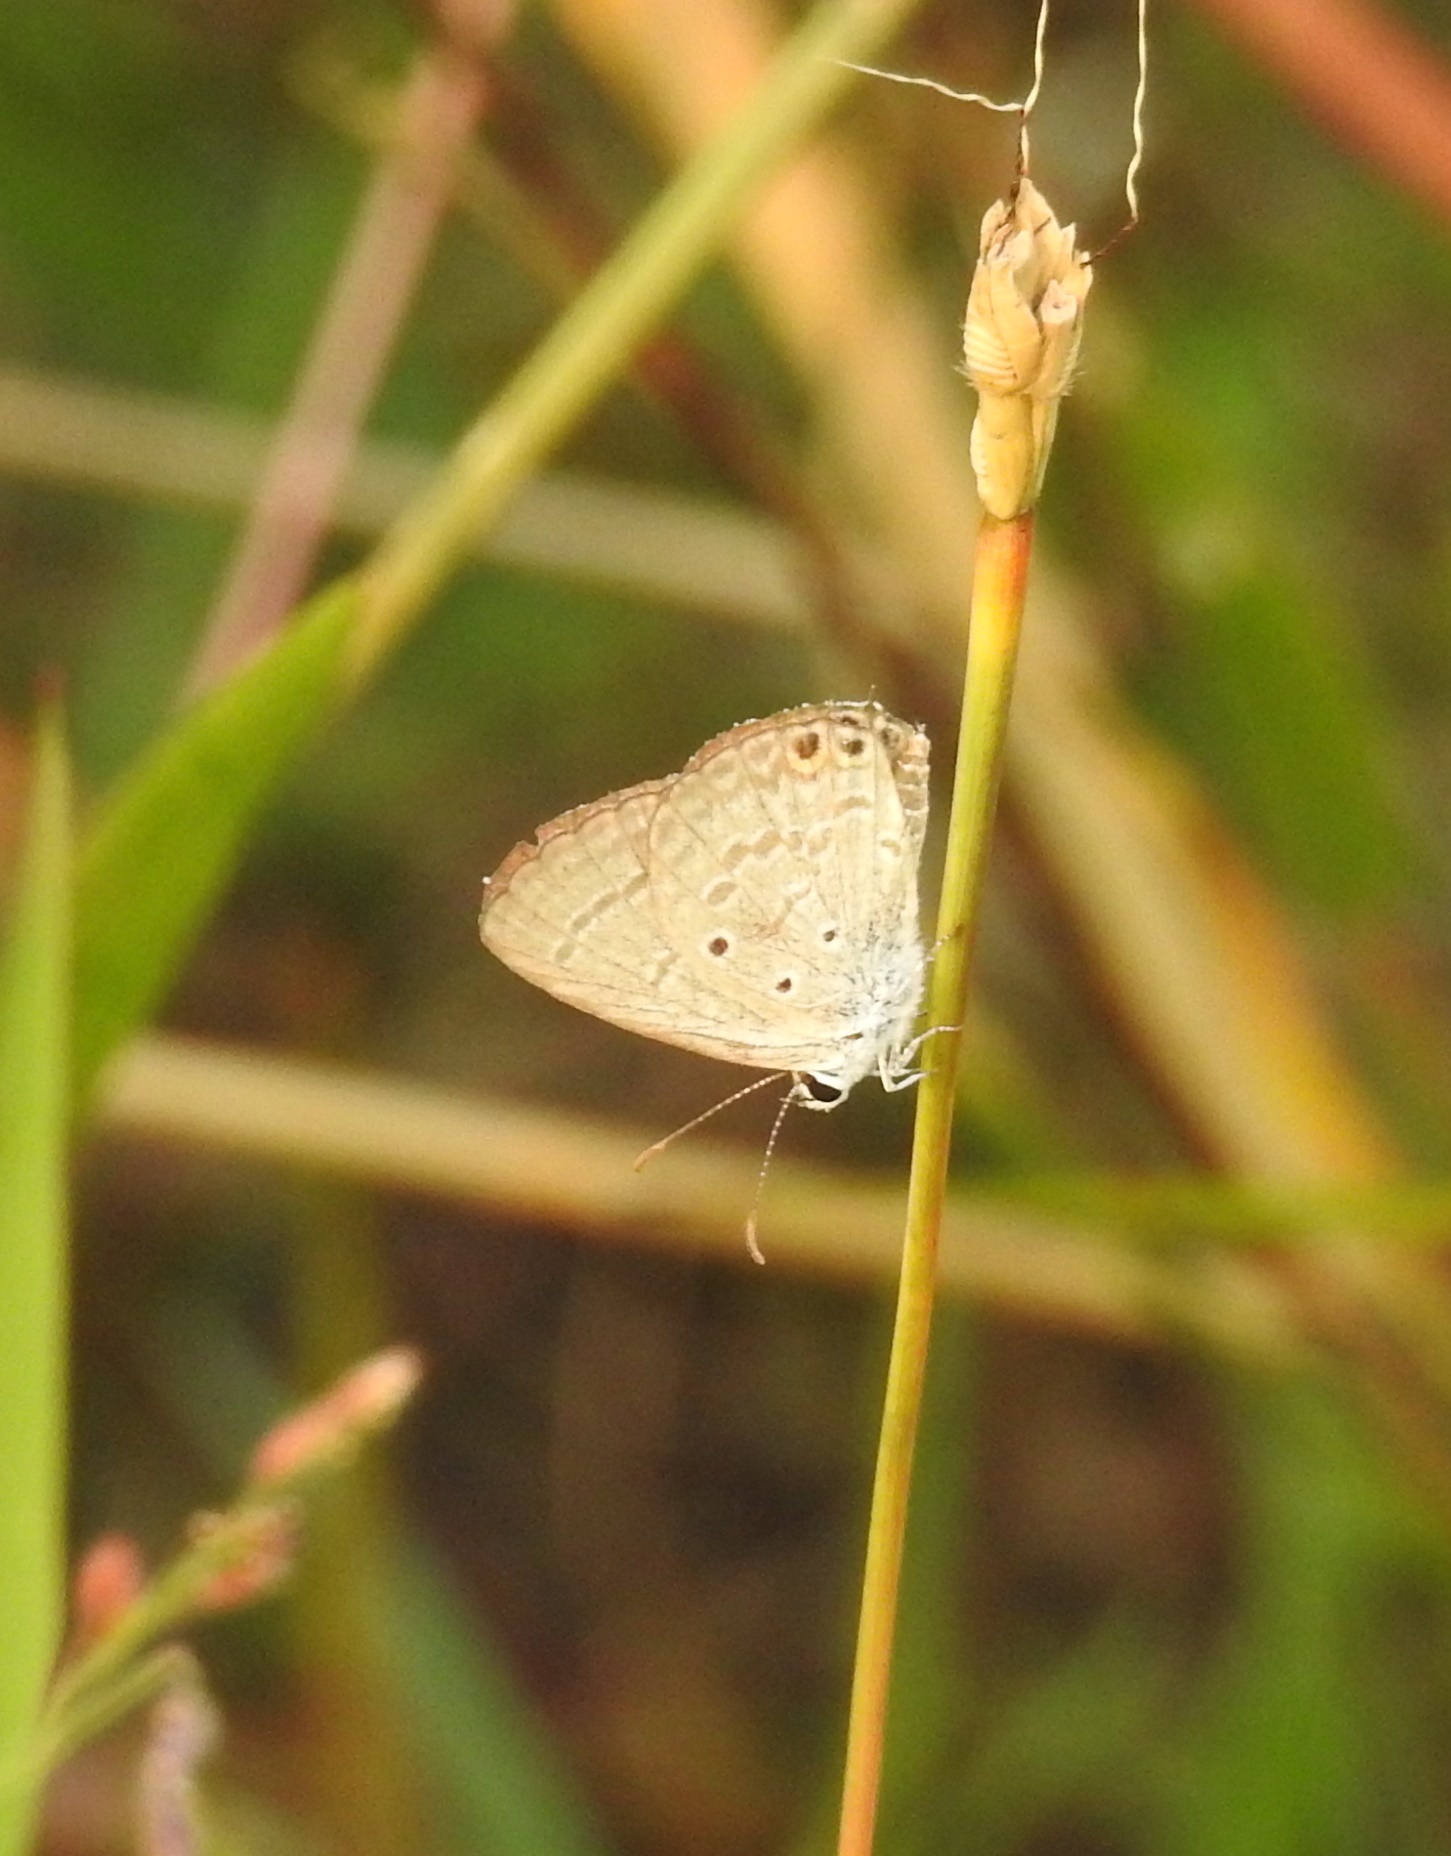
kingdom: Animalia
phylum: Arthropoda
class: Insecta
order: Lepidoptera
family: Lycaenidae
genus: Euchrysops
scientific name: Euchrysops cnejus
